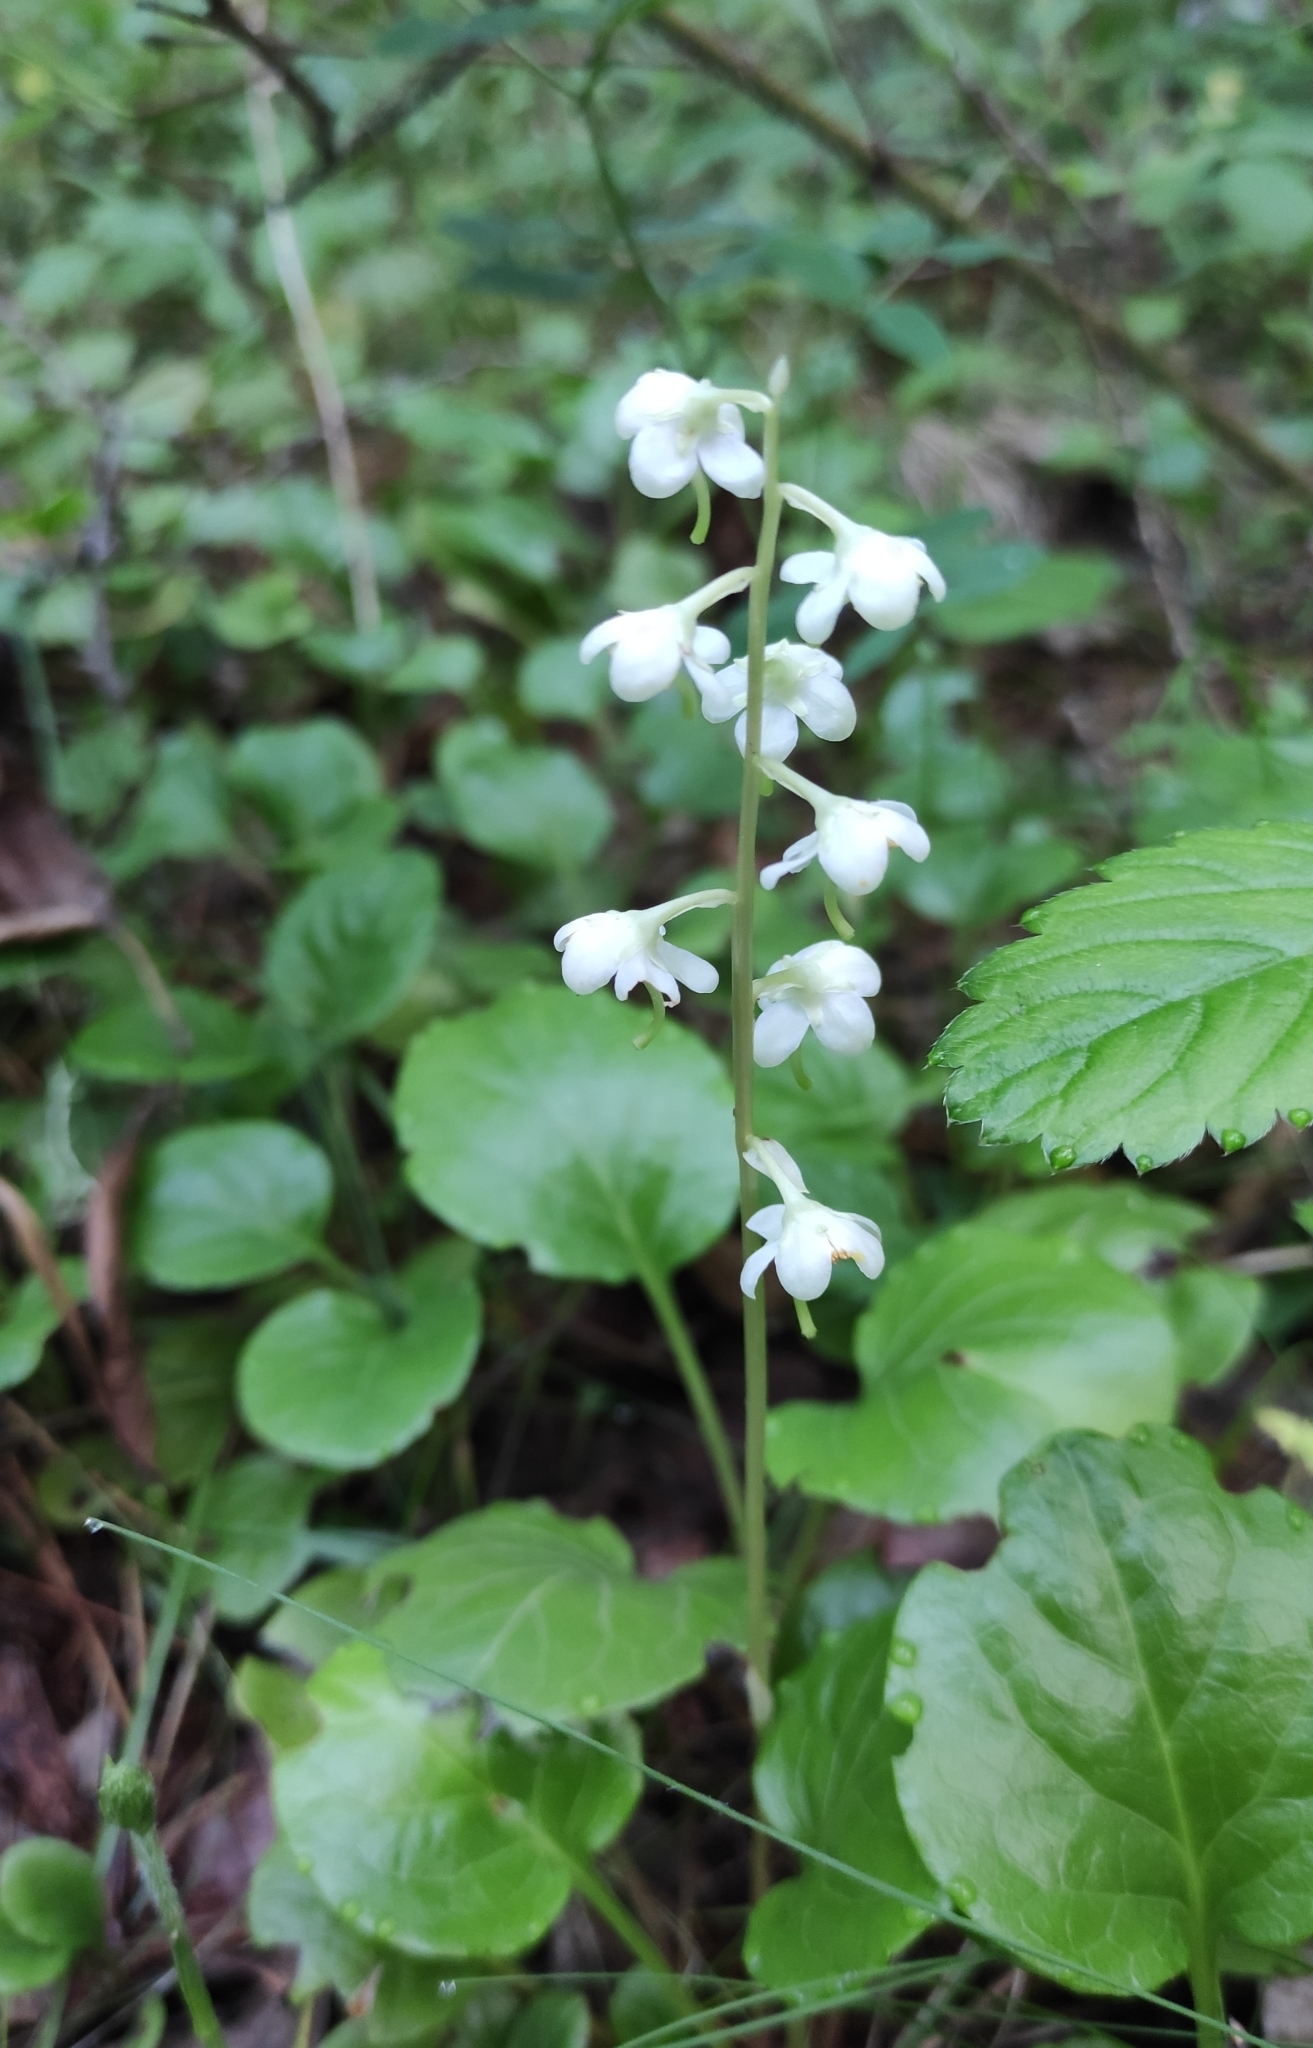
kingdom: Plantae
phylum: Tracheophyta
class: Magnoliopsida
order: Ericales
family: Ericaceae
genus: Pyrola
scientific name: Pyrola rotundifolia
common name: Round-leaved wintergreen
